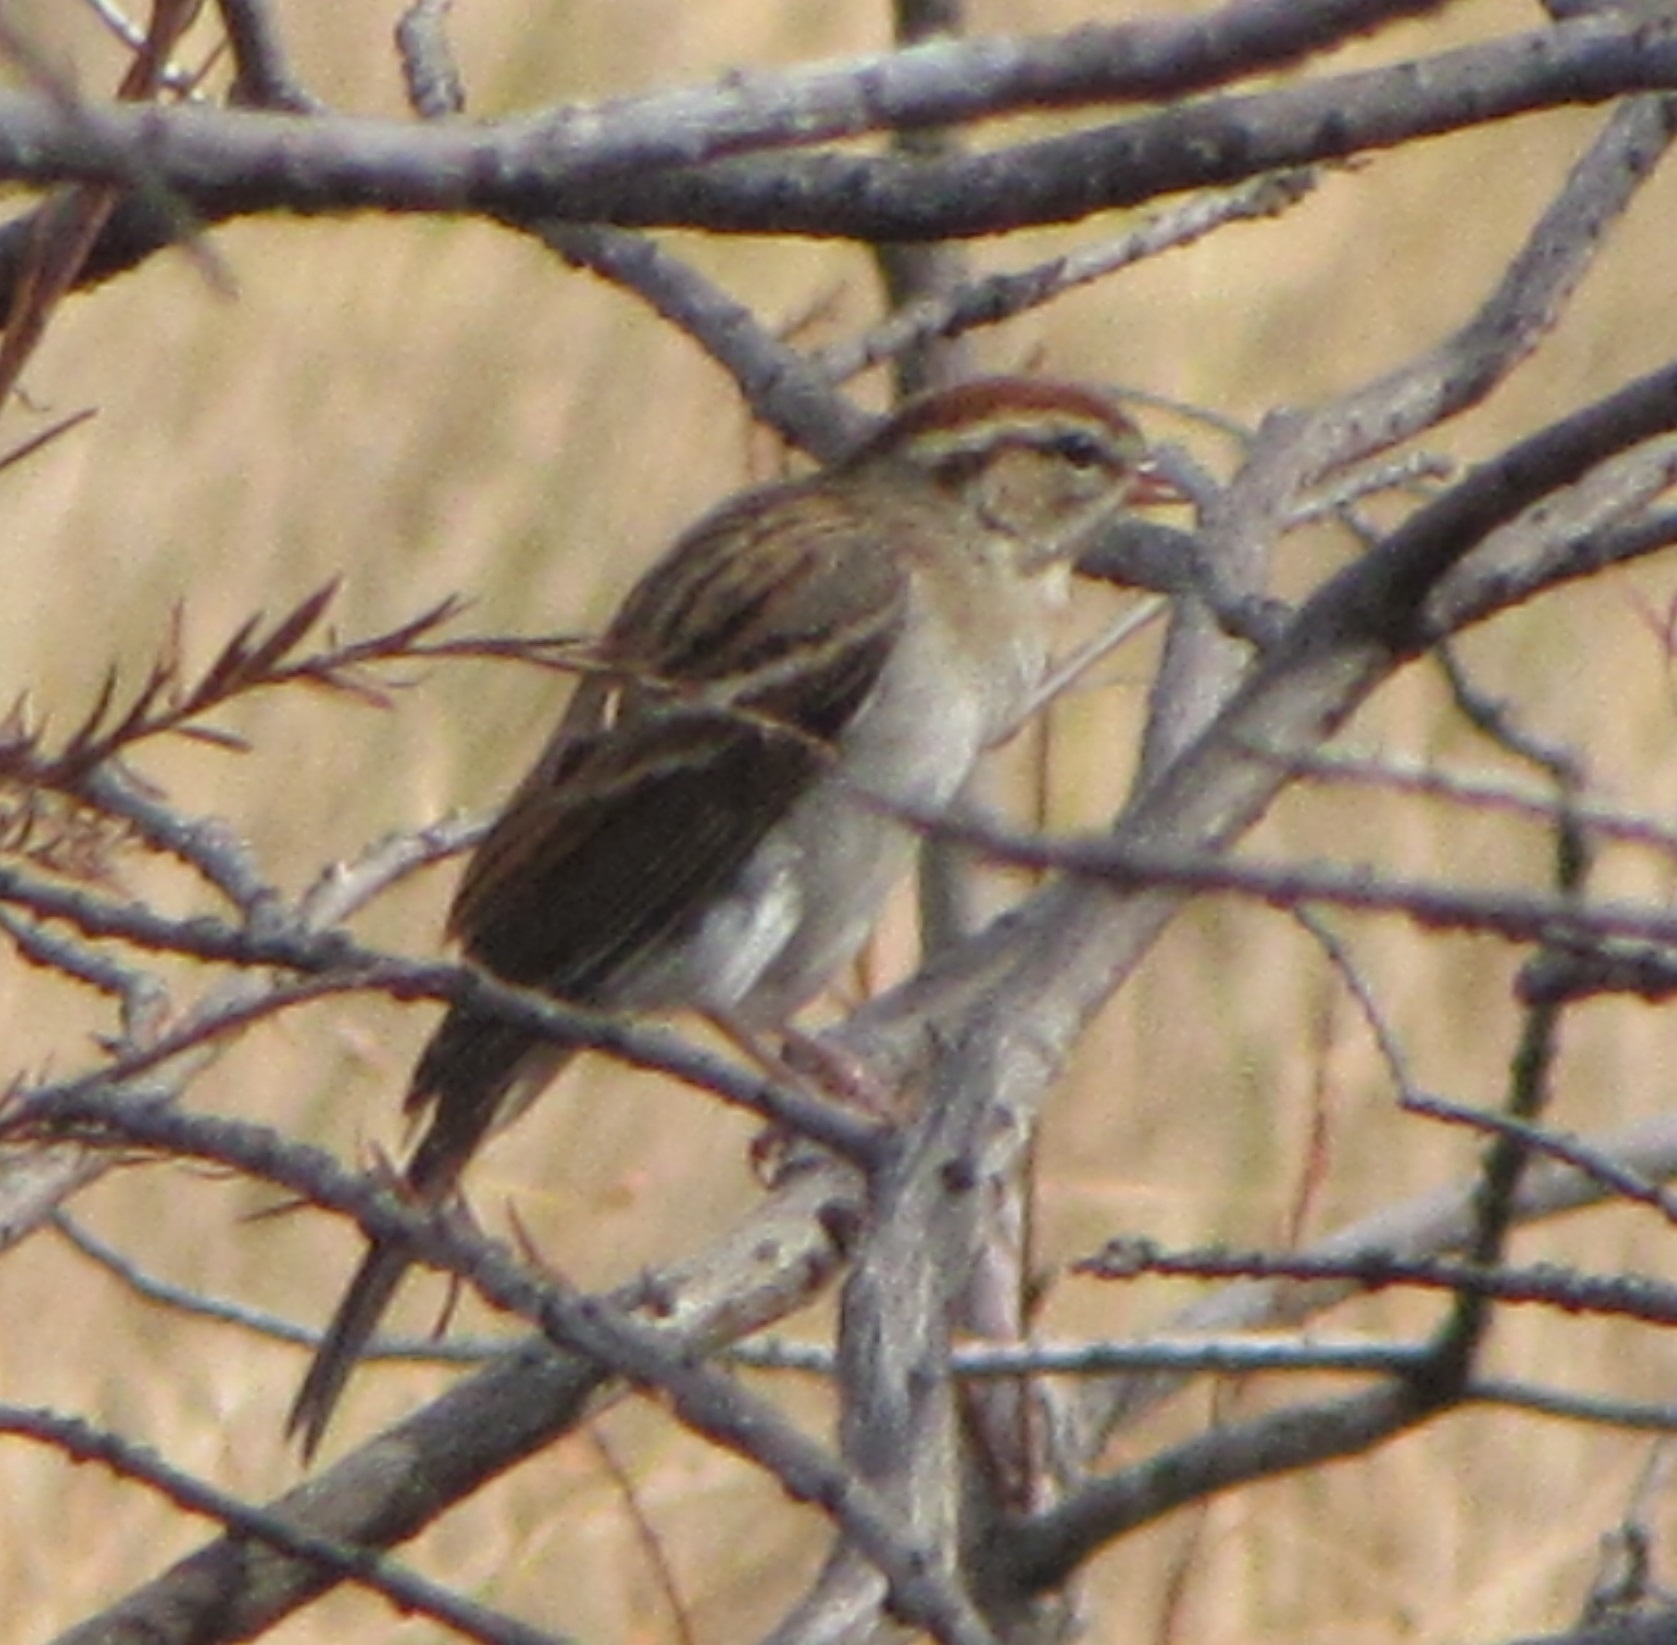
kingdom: Animalia
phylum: Chordata
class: Aves
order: Passeriformes
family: Passerellidae
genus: Spizella
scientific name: Spizella passerina
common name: Chipping sparrow
